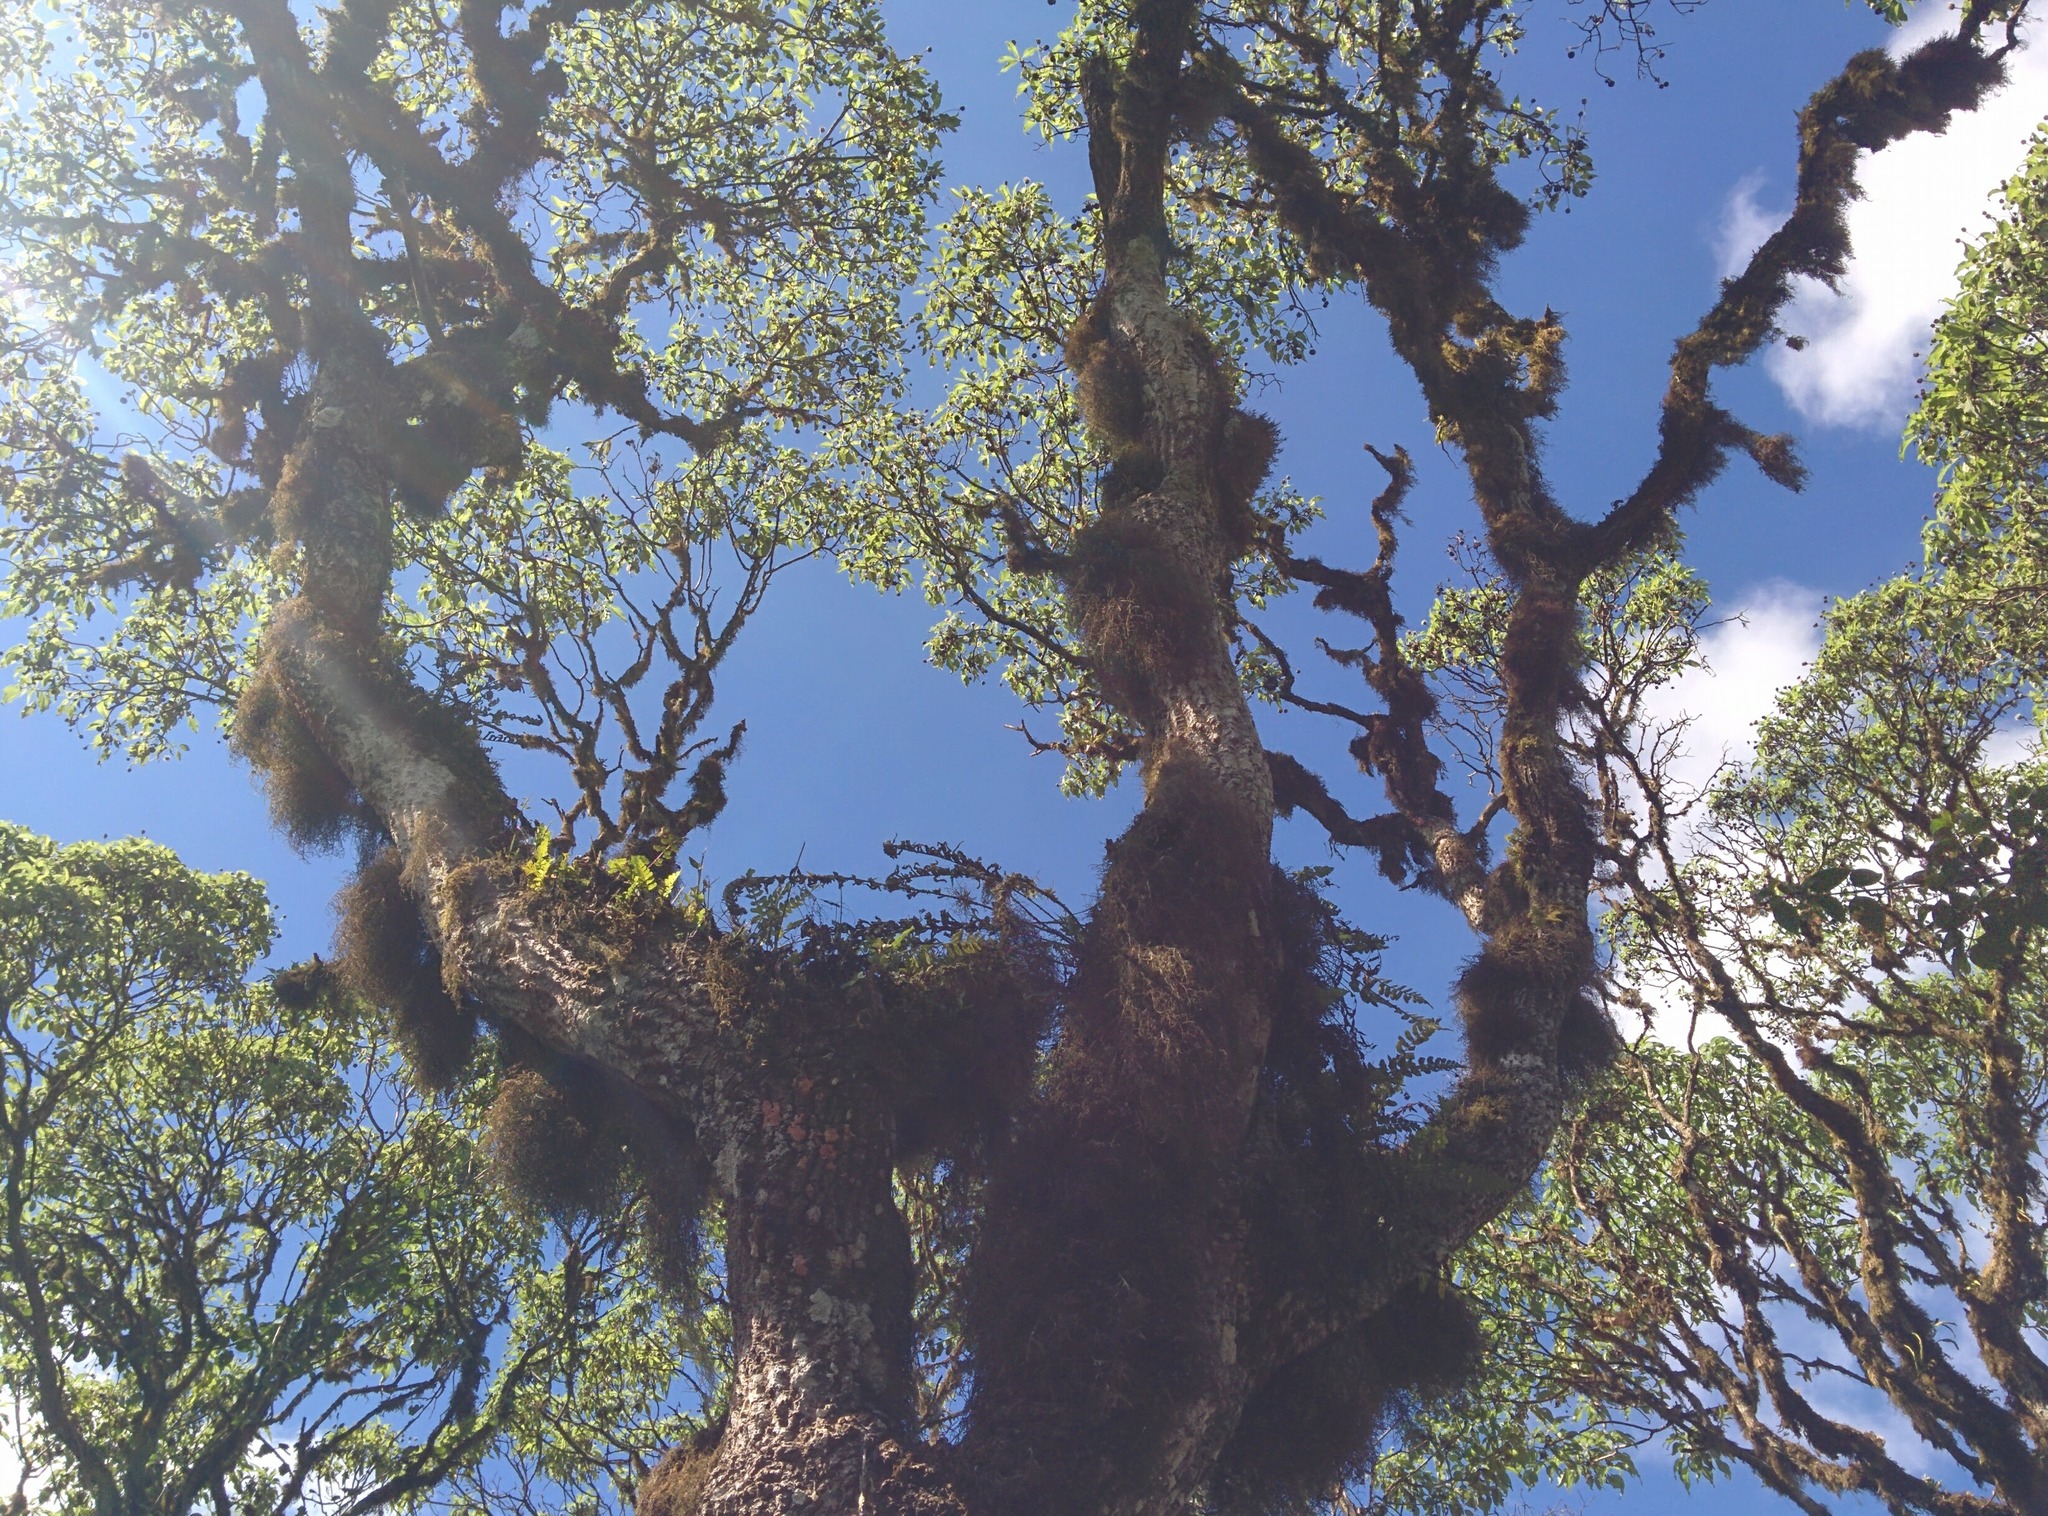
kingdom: Plantae
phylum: Tracheophyta
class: Magnoliopsida
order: Asterales
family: Asteraceae
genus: Scalesia
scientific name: Scalesia pedunculata
